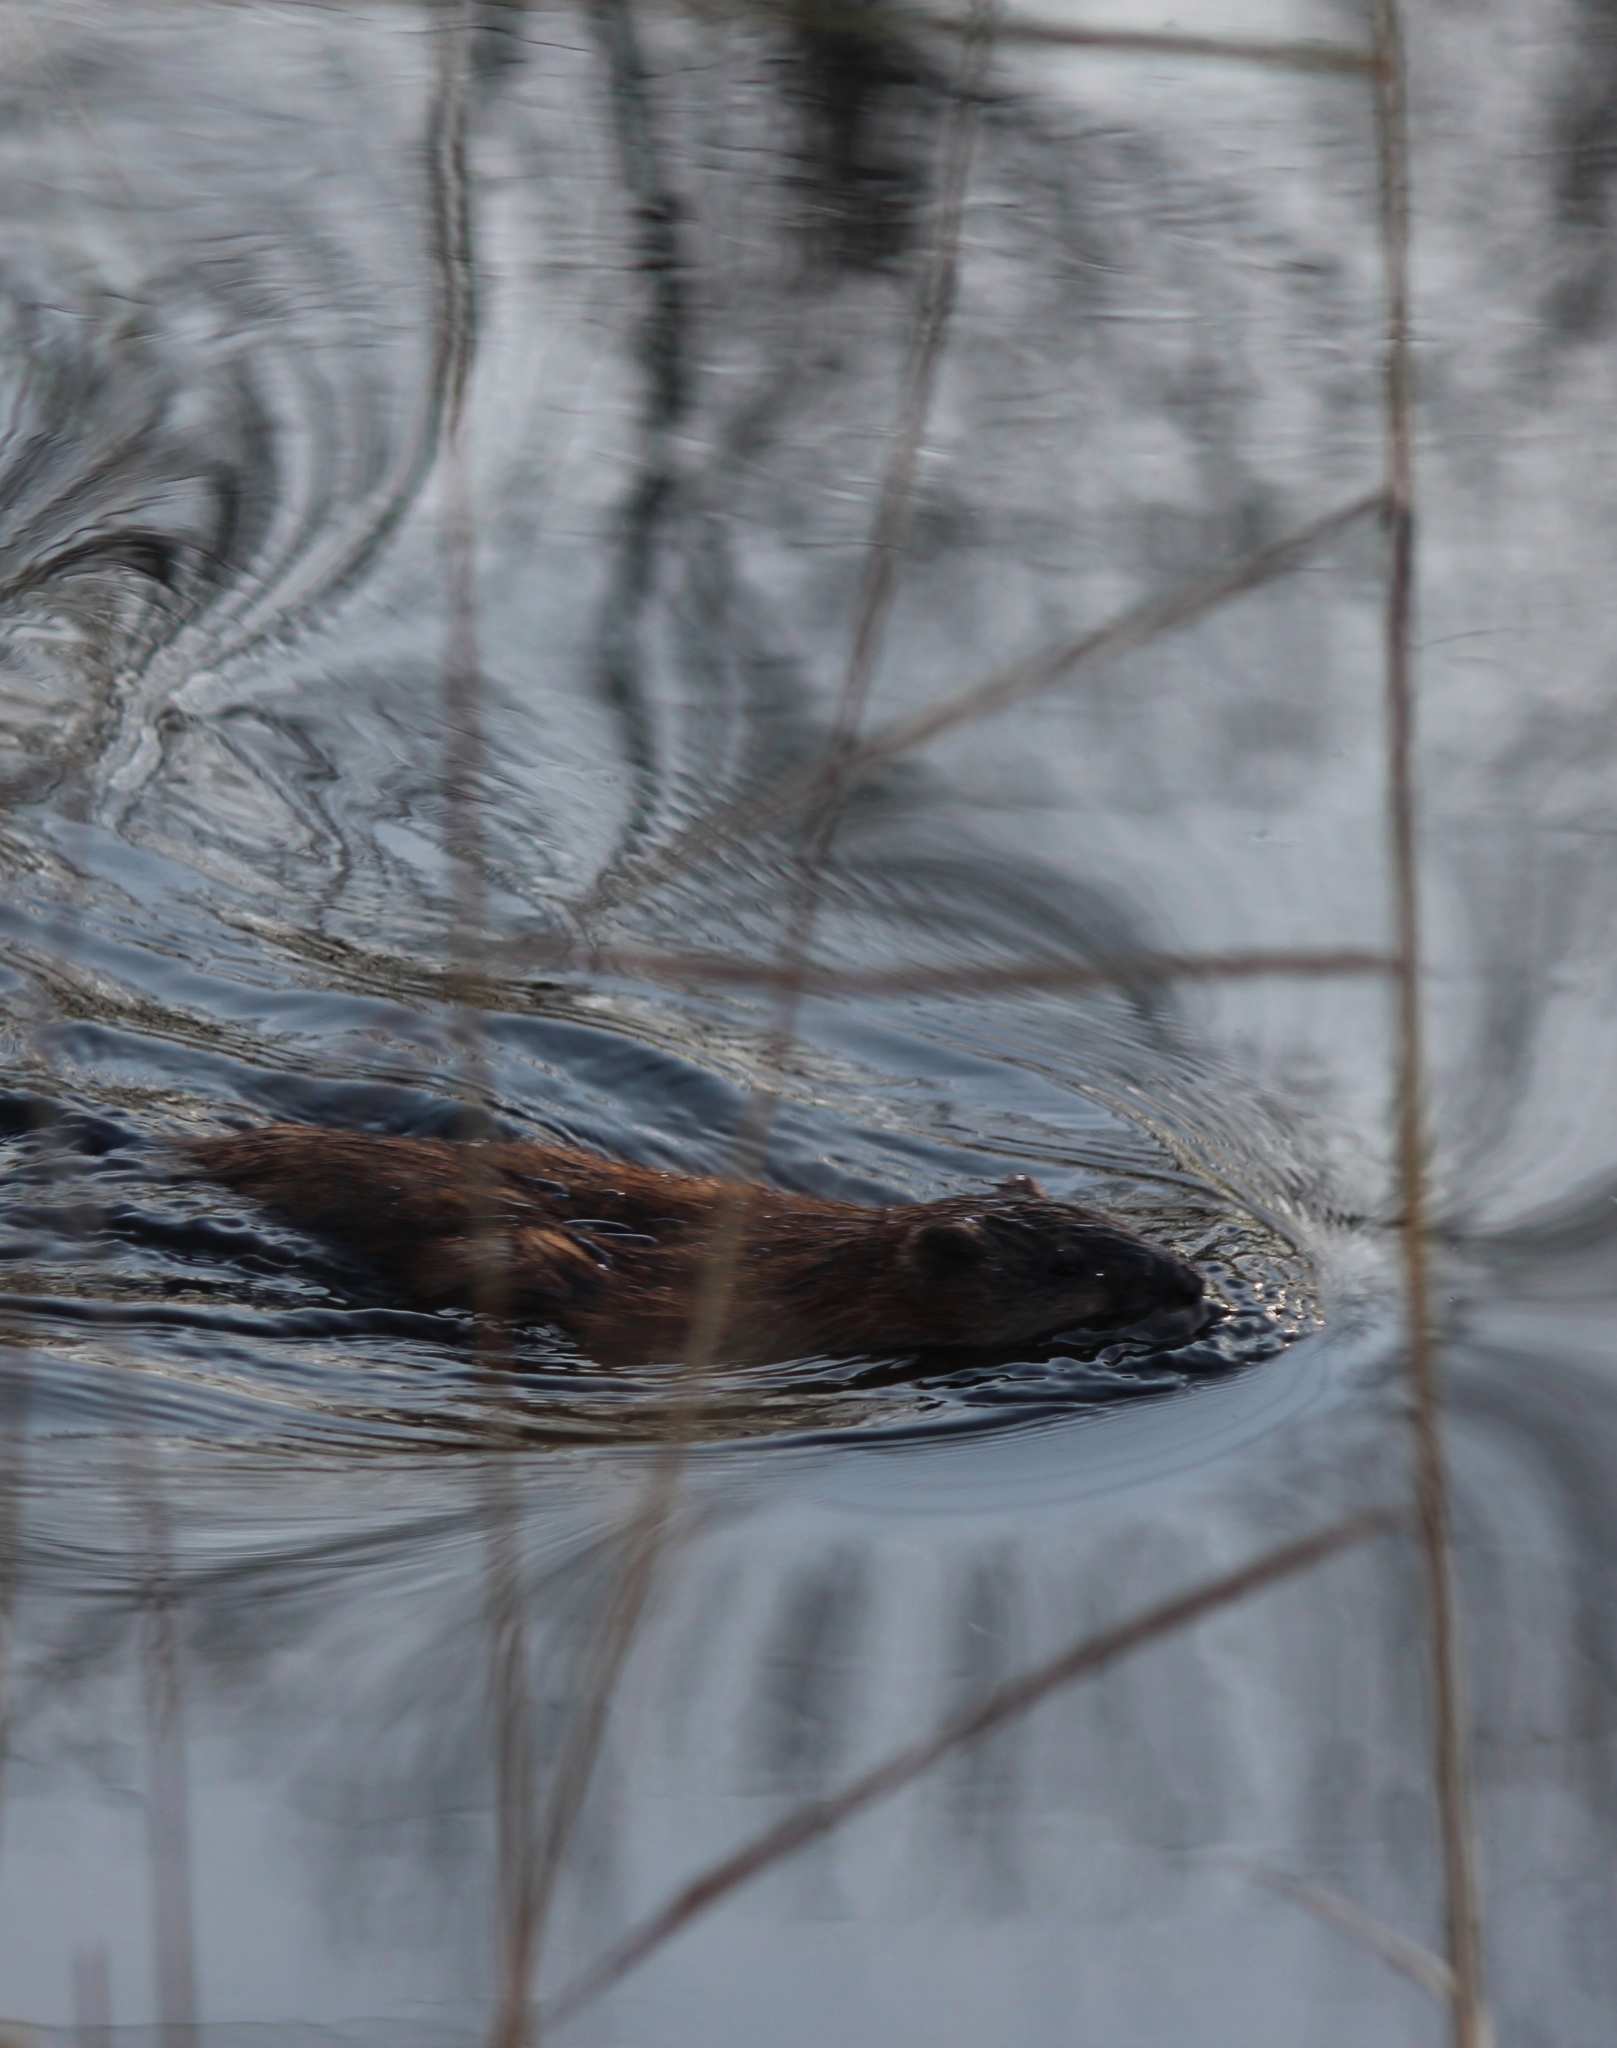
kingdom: Animalia
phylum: Chordata
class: Mammalia
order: Rodentia
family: Cricetidae
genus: Ondatra
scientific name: Ondatra zibethicus
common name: Muskrat
